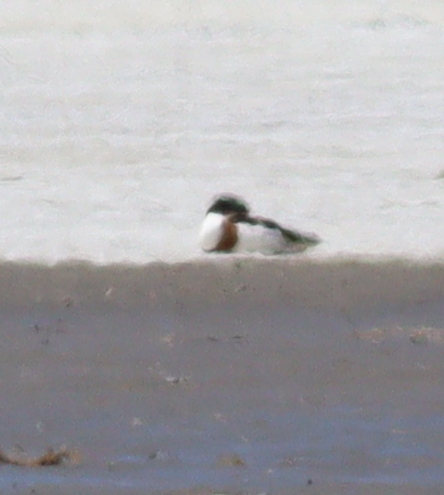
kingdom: Animalia
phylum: Chordata
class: Aves
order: Anseriformes
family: Anatidae
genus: Tadorna
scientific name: Tadorna tadorna
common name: Common shelduck
